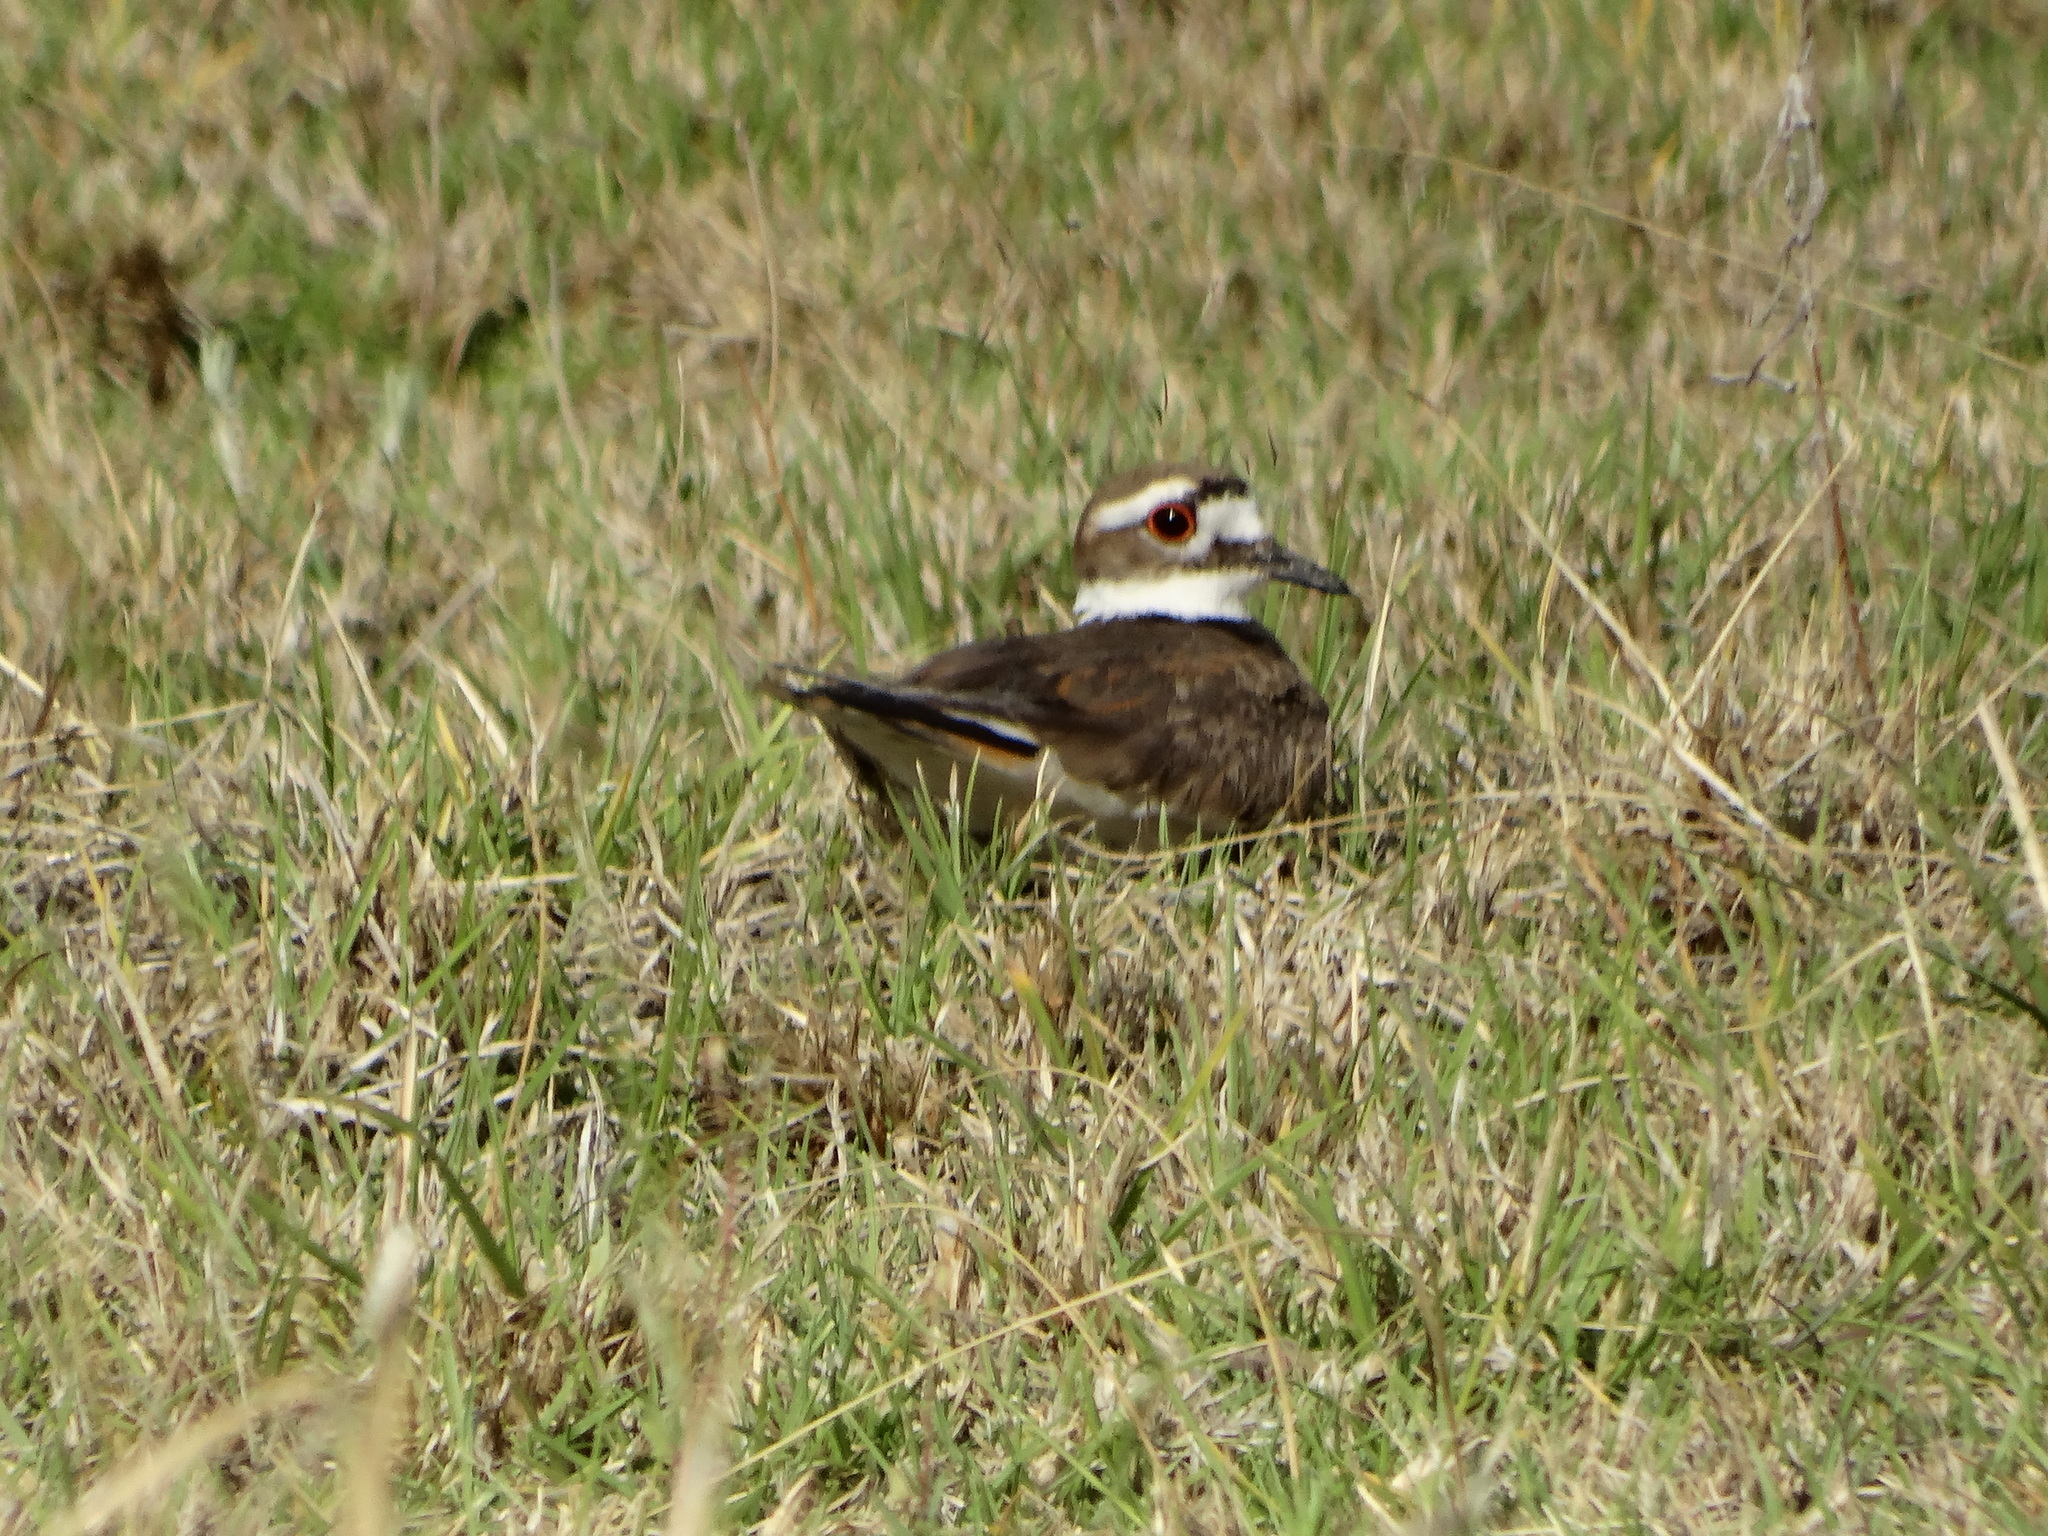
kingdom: Animalia
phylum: Chordata
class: Aves
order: Charadriiformes
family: Charadriidae
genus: Charadrius
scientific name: Charadrius vociferus
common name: Killdeer
